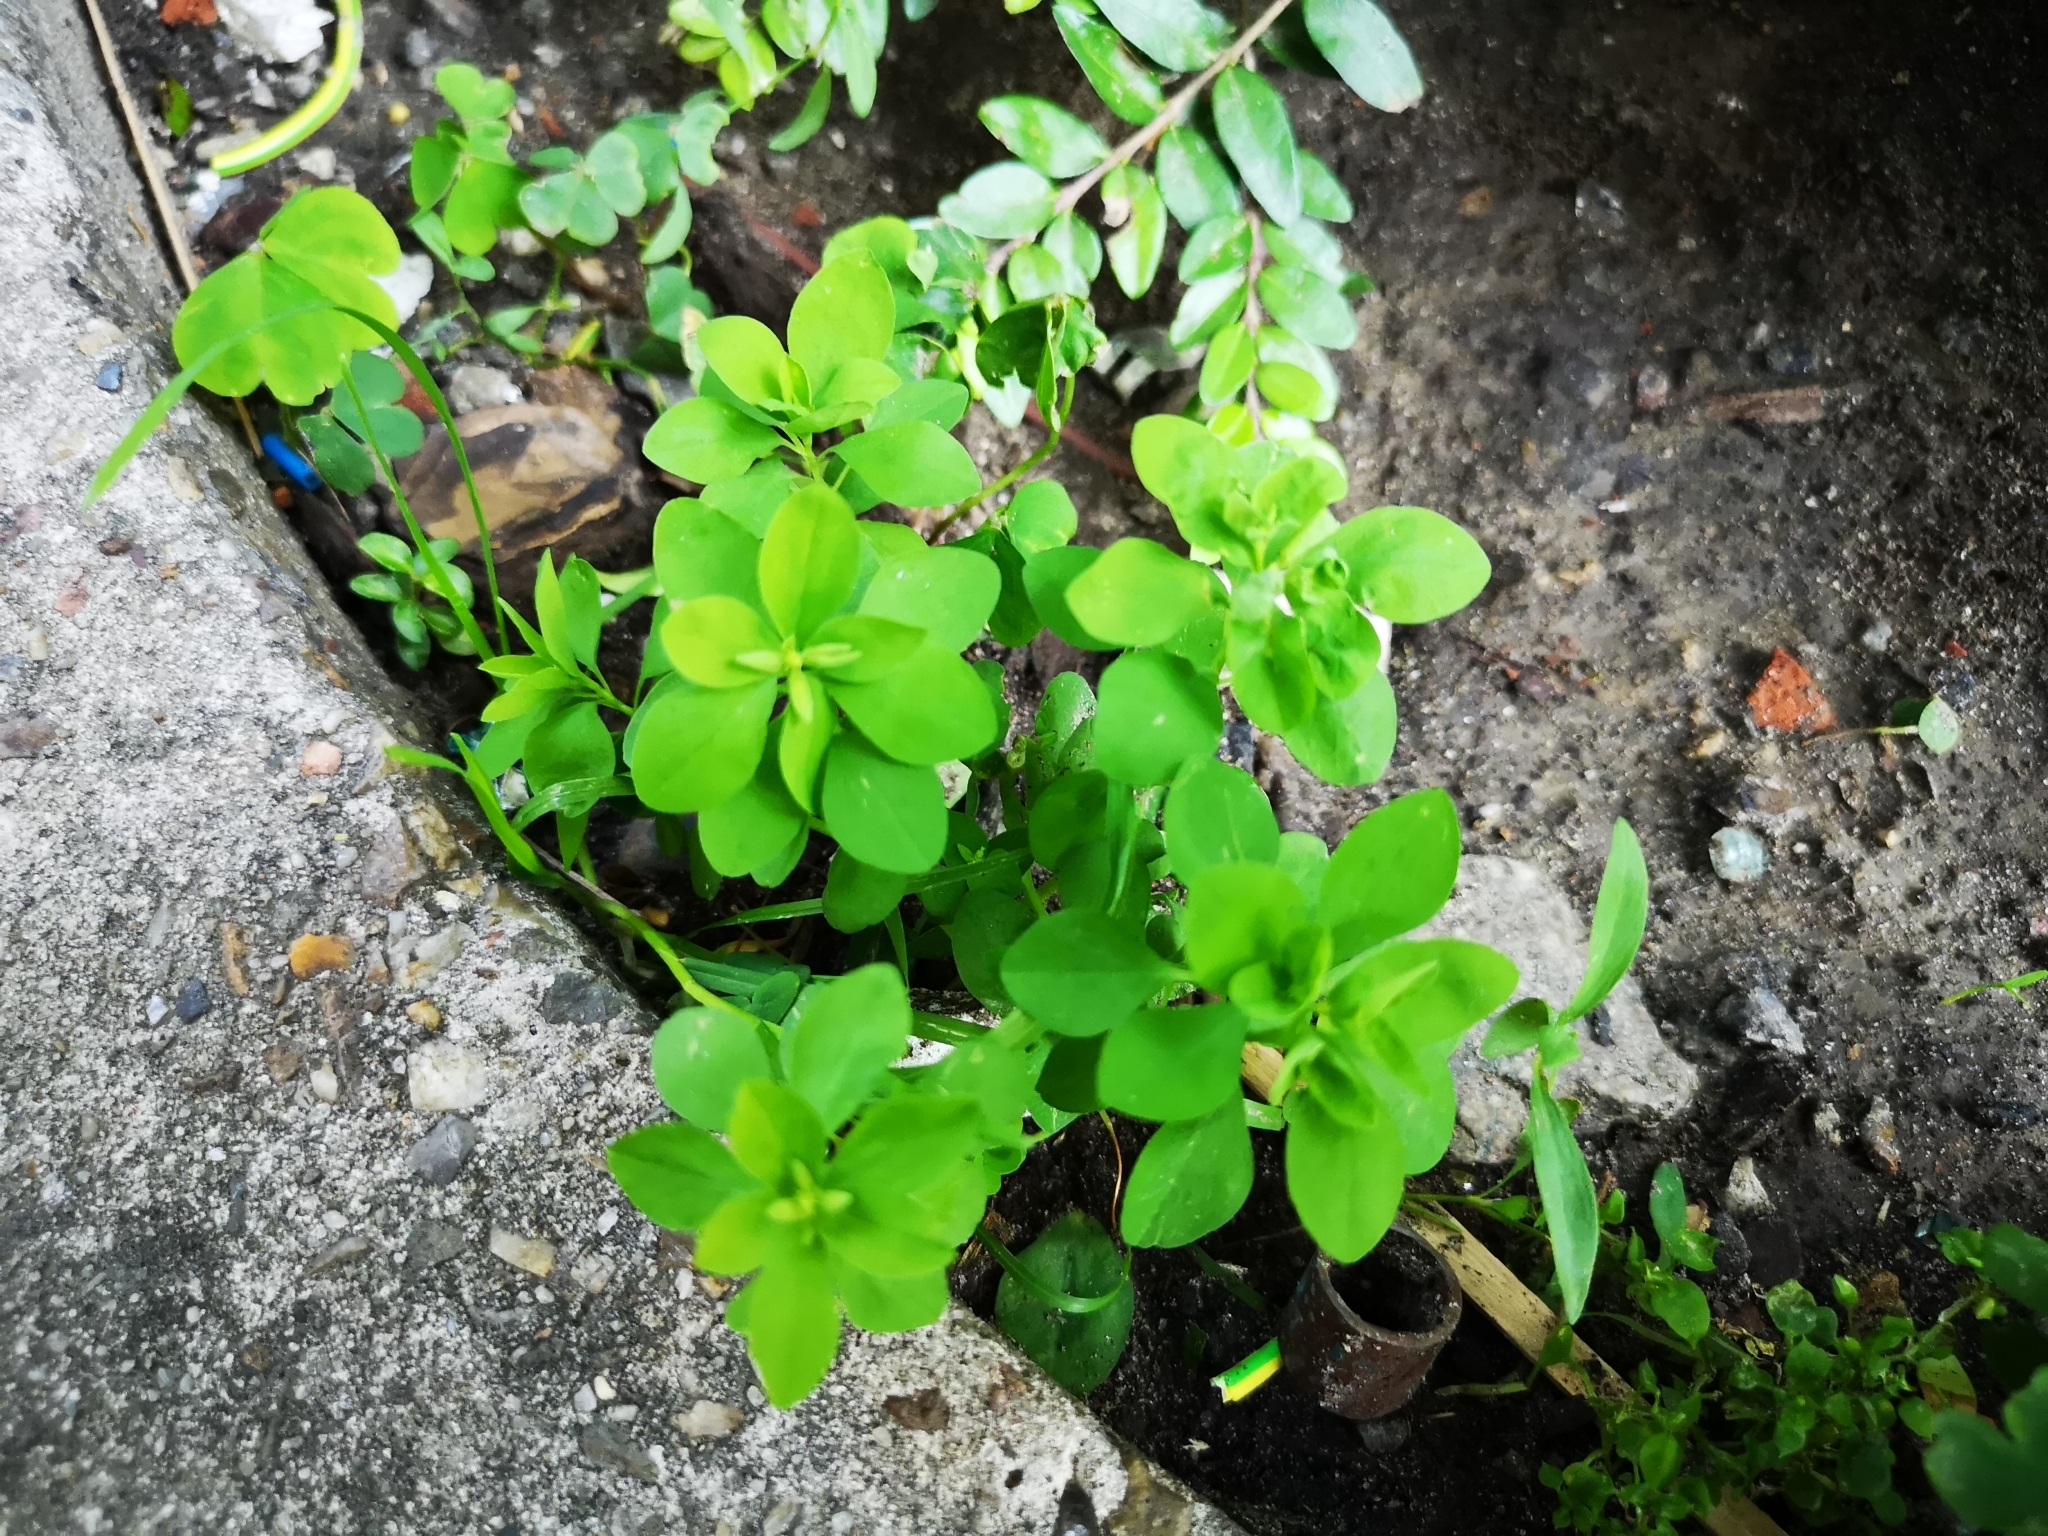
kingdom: Plantae
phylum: Tracheophyta
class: Magnoliopsida
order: Malpighiales
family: Euphorbiaceae
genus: Euphorbia
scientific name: Euphorbia peplus
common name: Petty spurge
